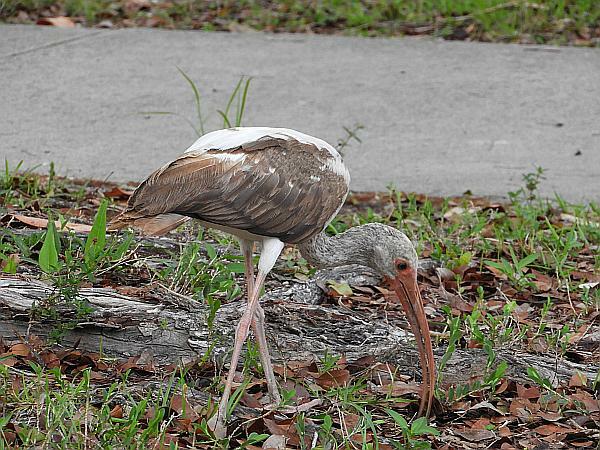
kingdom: Animalia
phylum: Chordata
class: Aves
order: Pelecaniformes
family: Threskiornithidae
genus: Eudocimus
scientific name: Eudocimus albus
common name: White ibis
